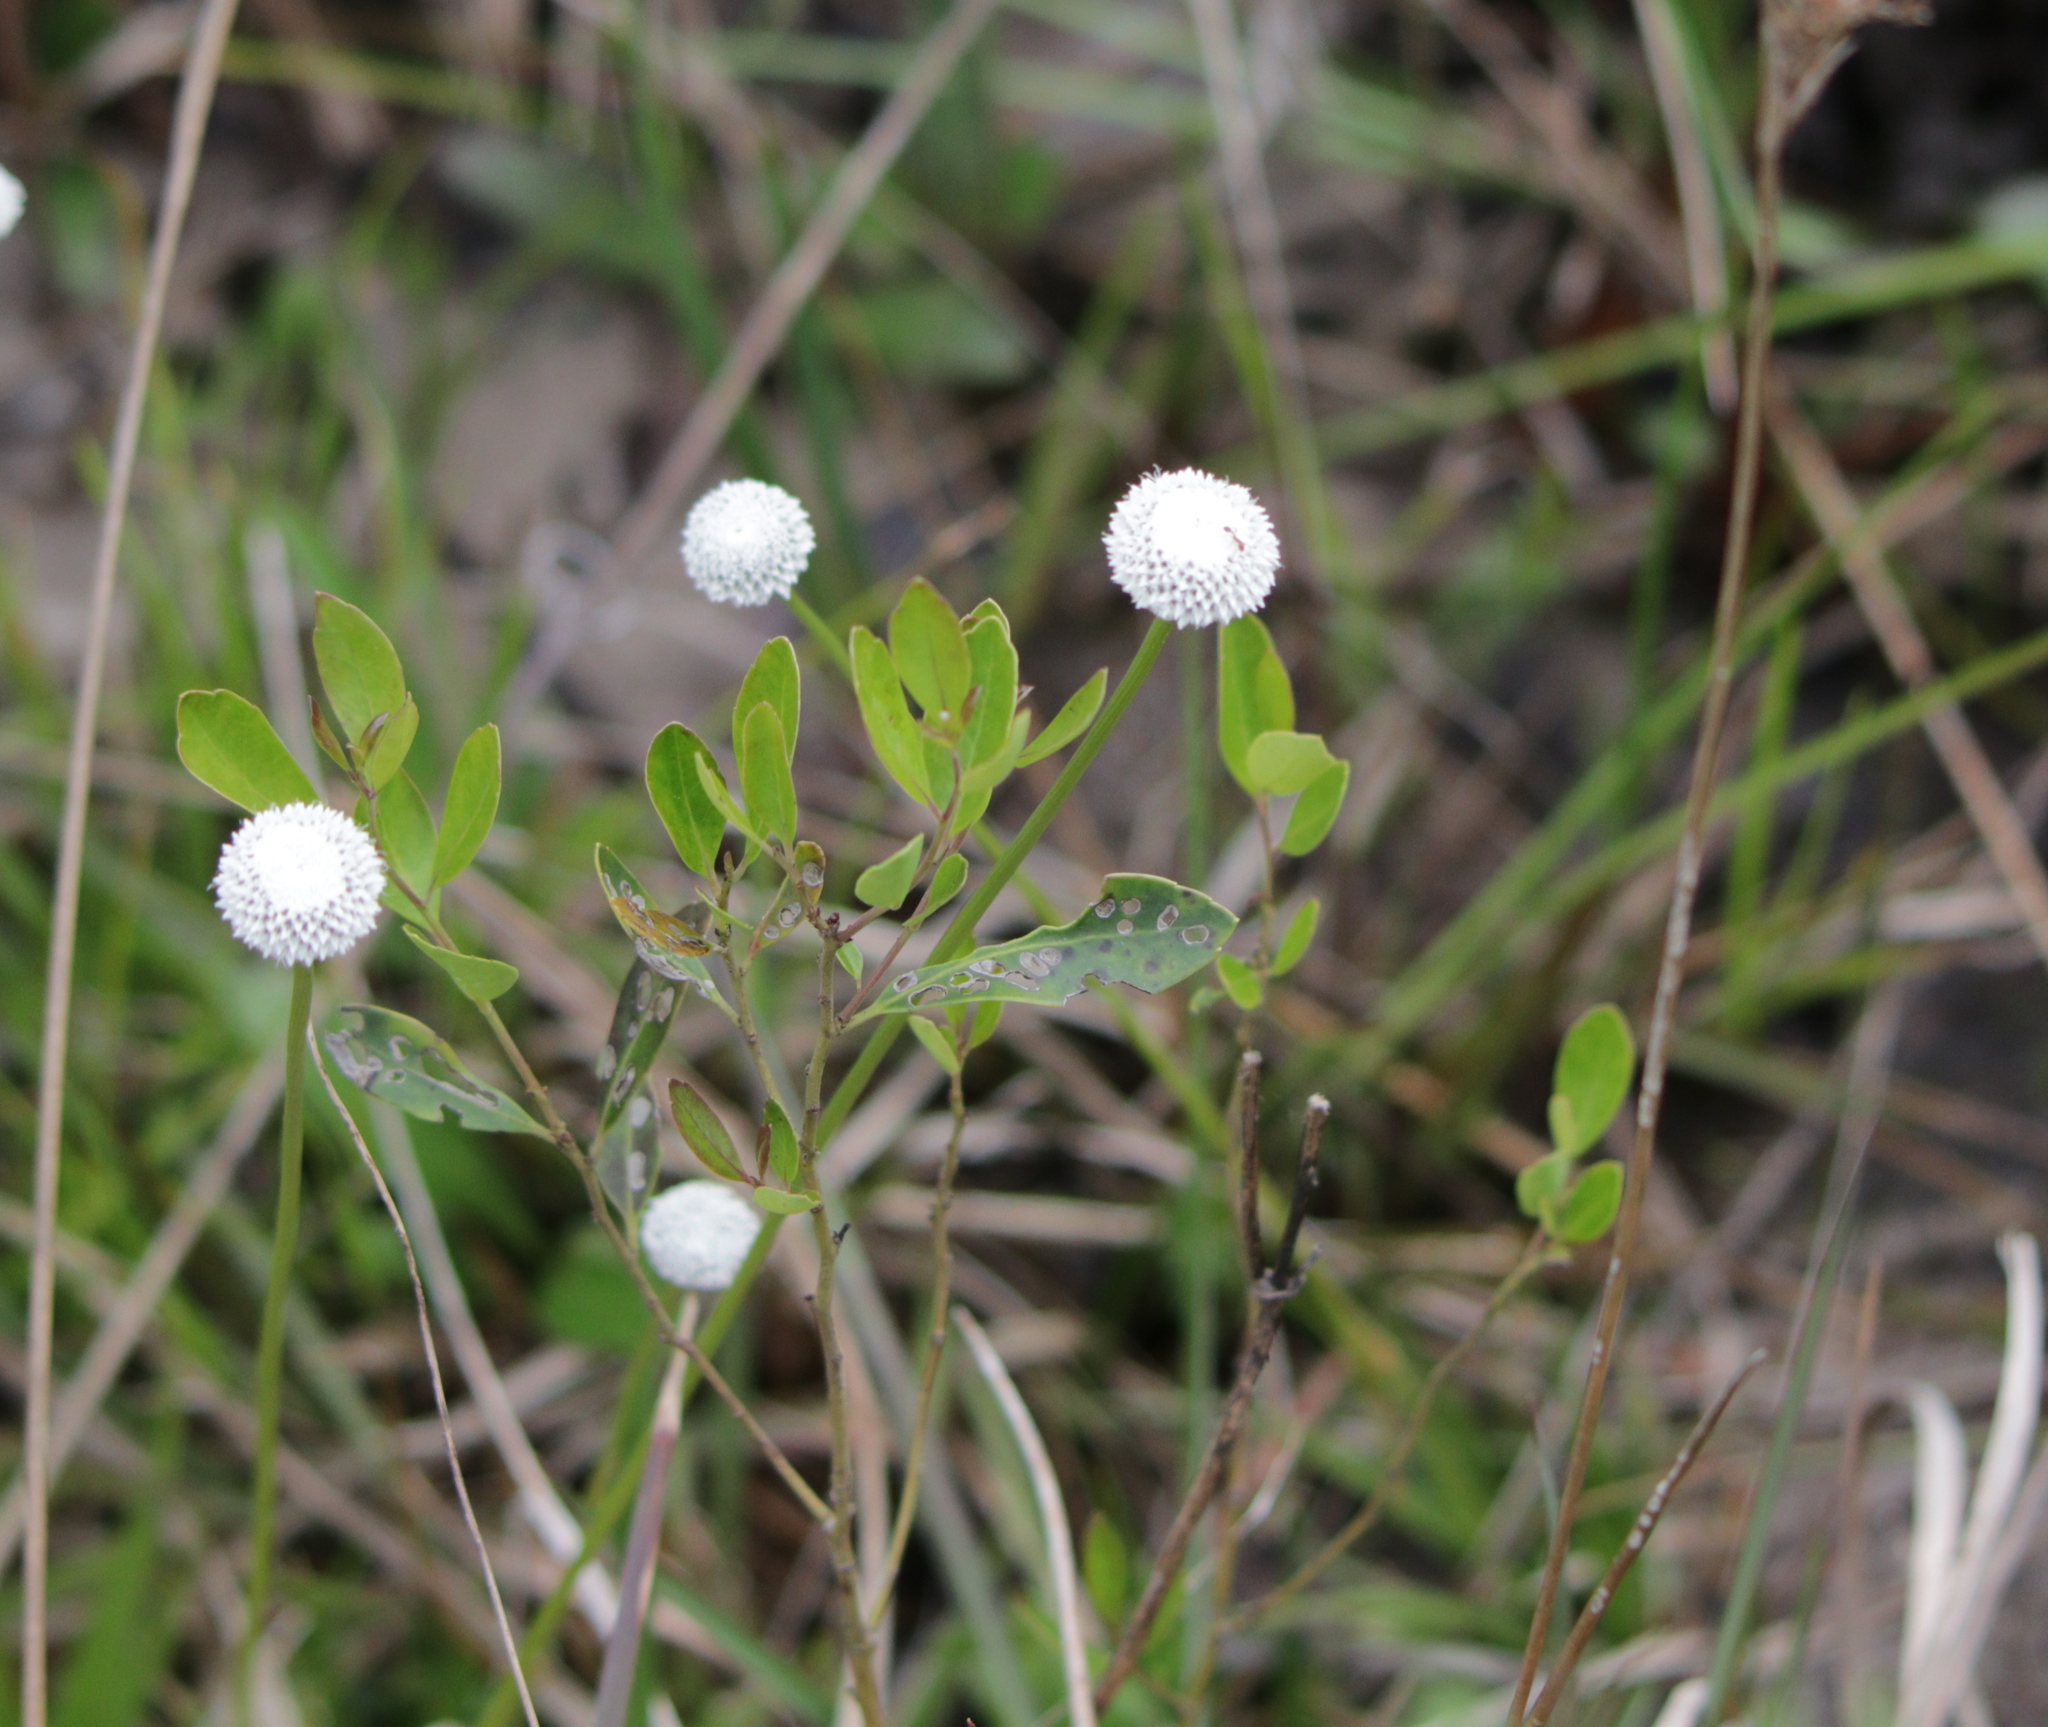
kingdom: Plantae
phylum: Tracheophyta
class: Liliopsida
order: Poales
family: Eriocaulaceae
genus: Eriocaulon
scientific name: Eriocaulon compressum
